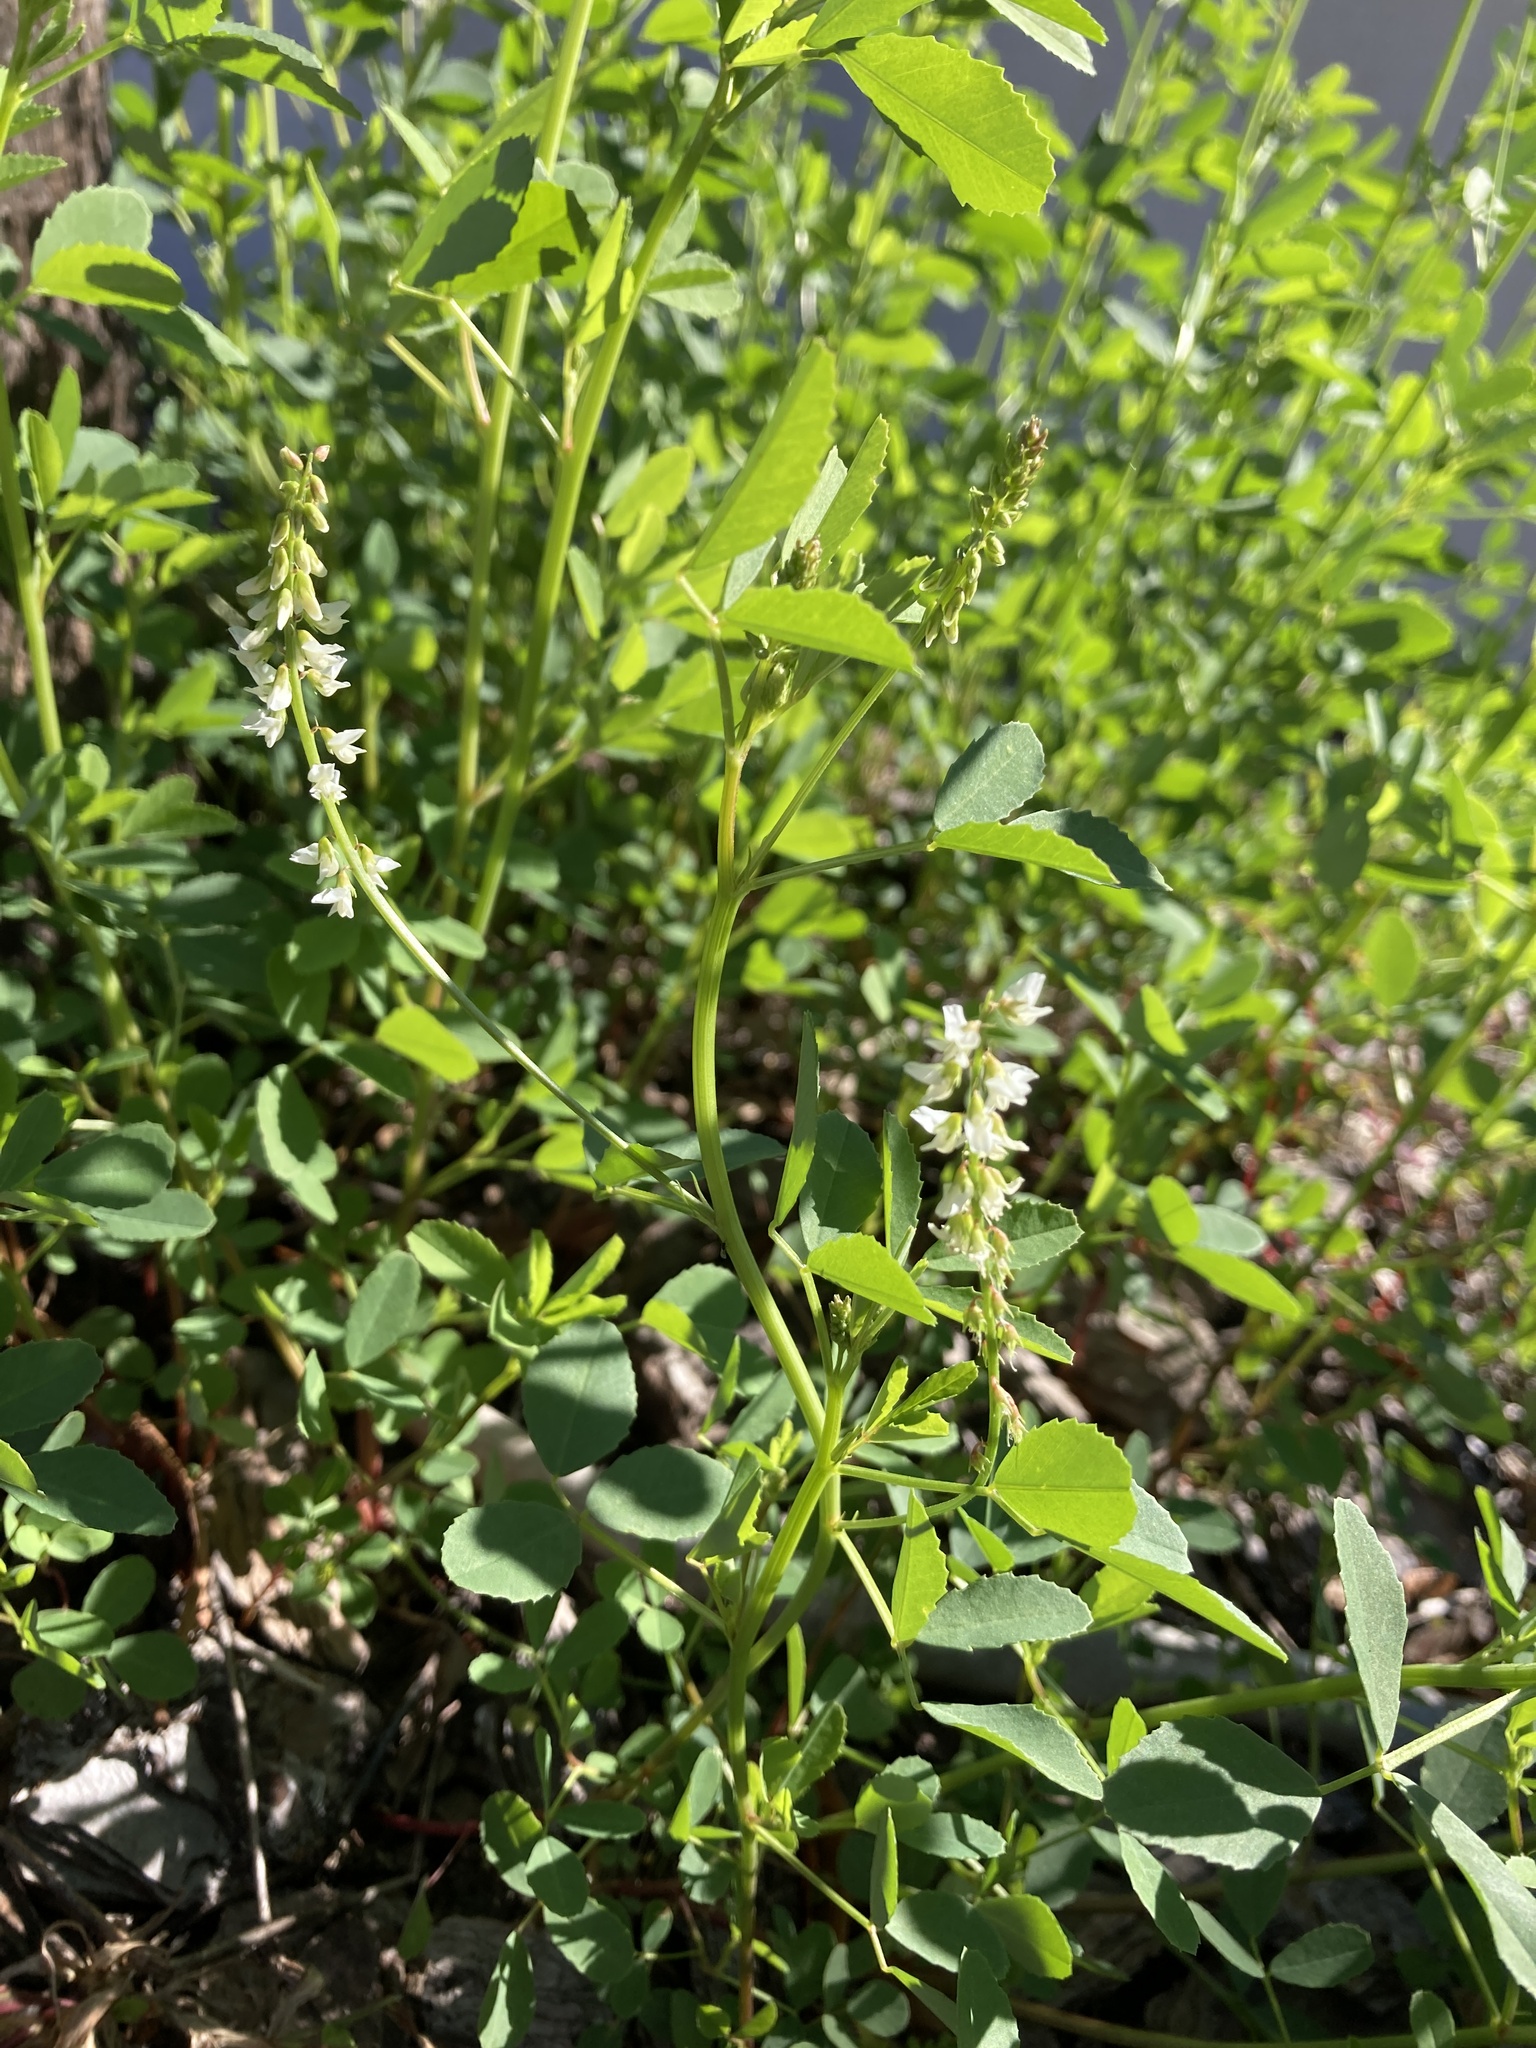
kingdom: Plantae
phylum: Tracheophyta
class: Magnoliopsida
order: Fabales
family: Fabaceae
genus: Melilotus
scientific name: Melilotus albus
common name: White melilot
